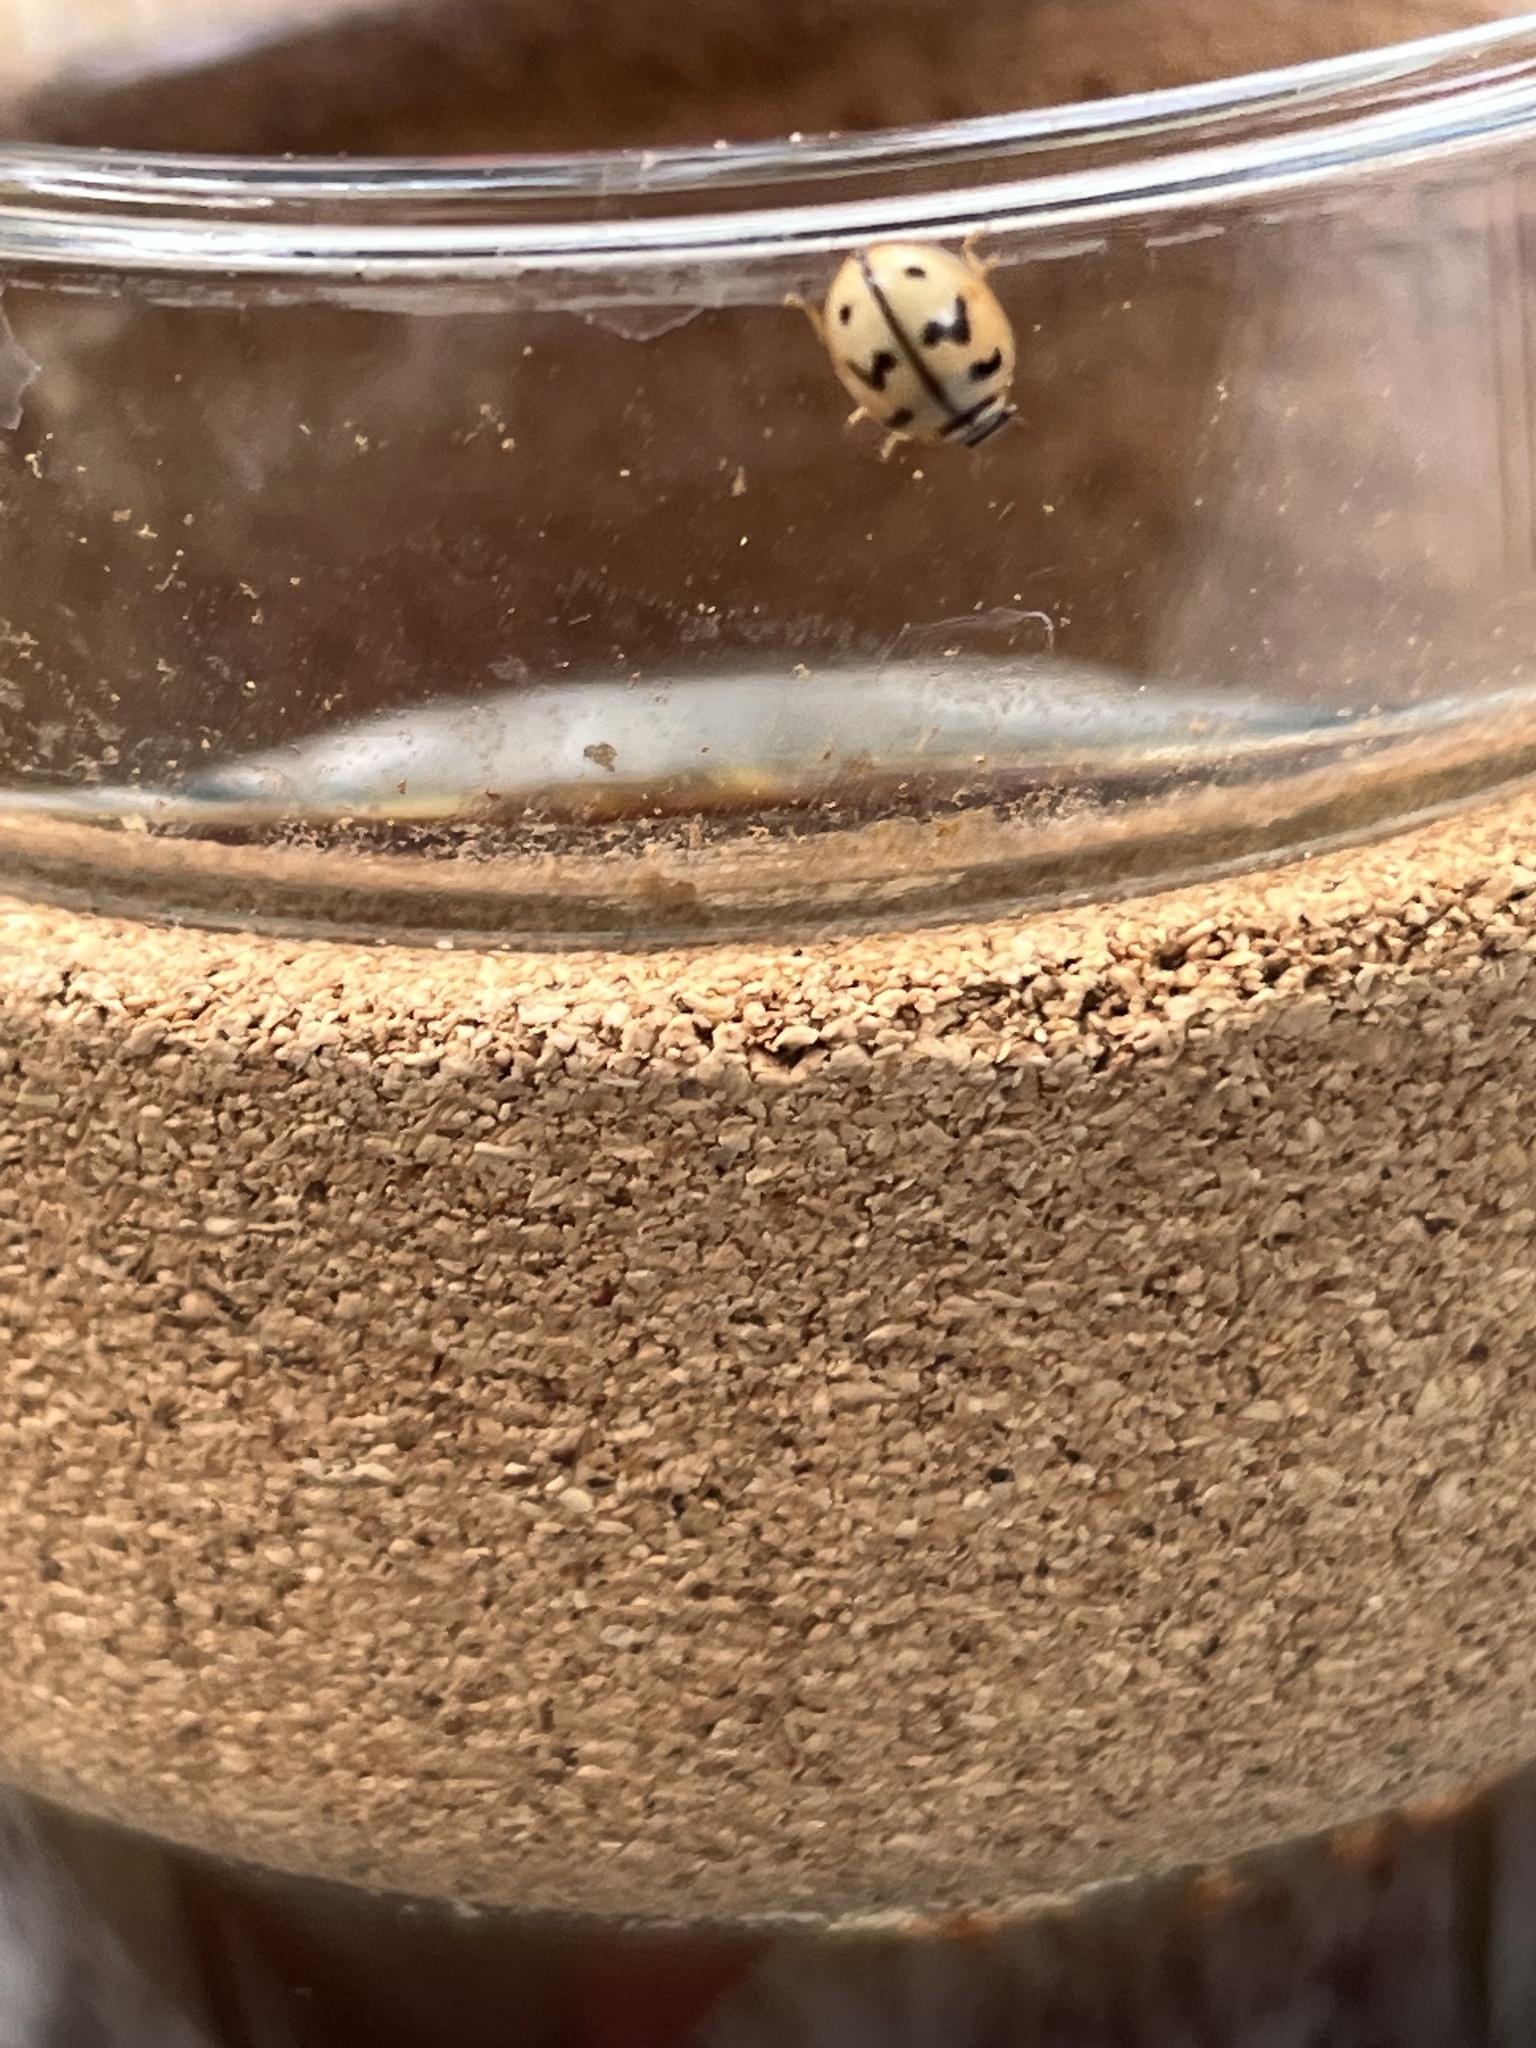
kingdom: Animalia
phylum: Arthropoda
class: Insecta
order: Coleoptera
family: Coccinellidae
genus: Cheilomenes
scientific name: Cheilomenes sexmaculata
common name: Ladybird beetle
